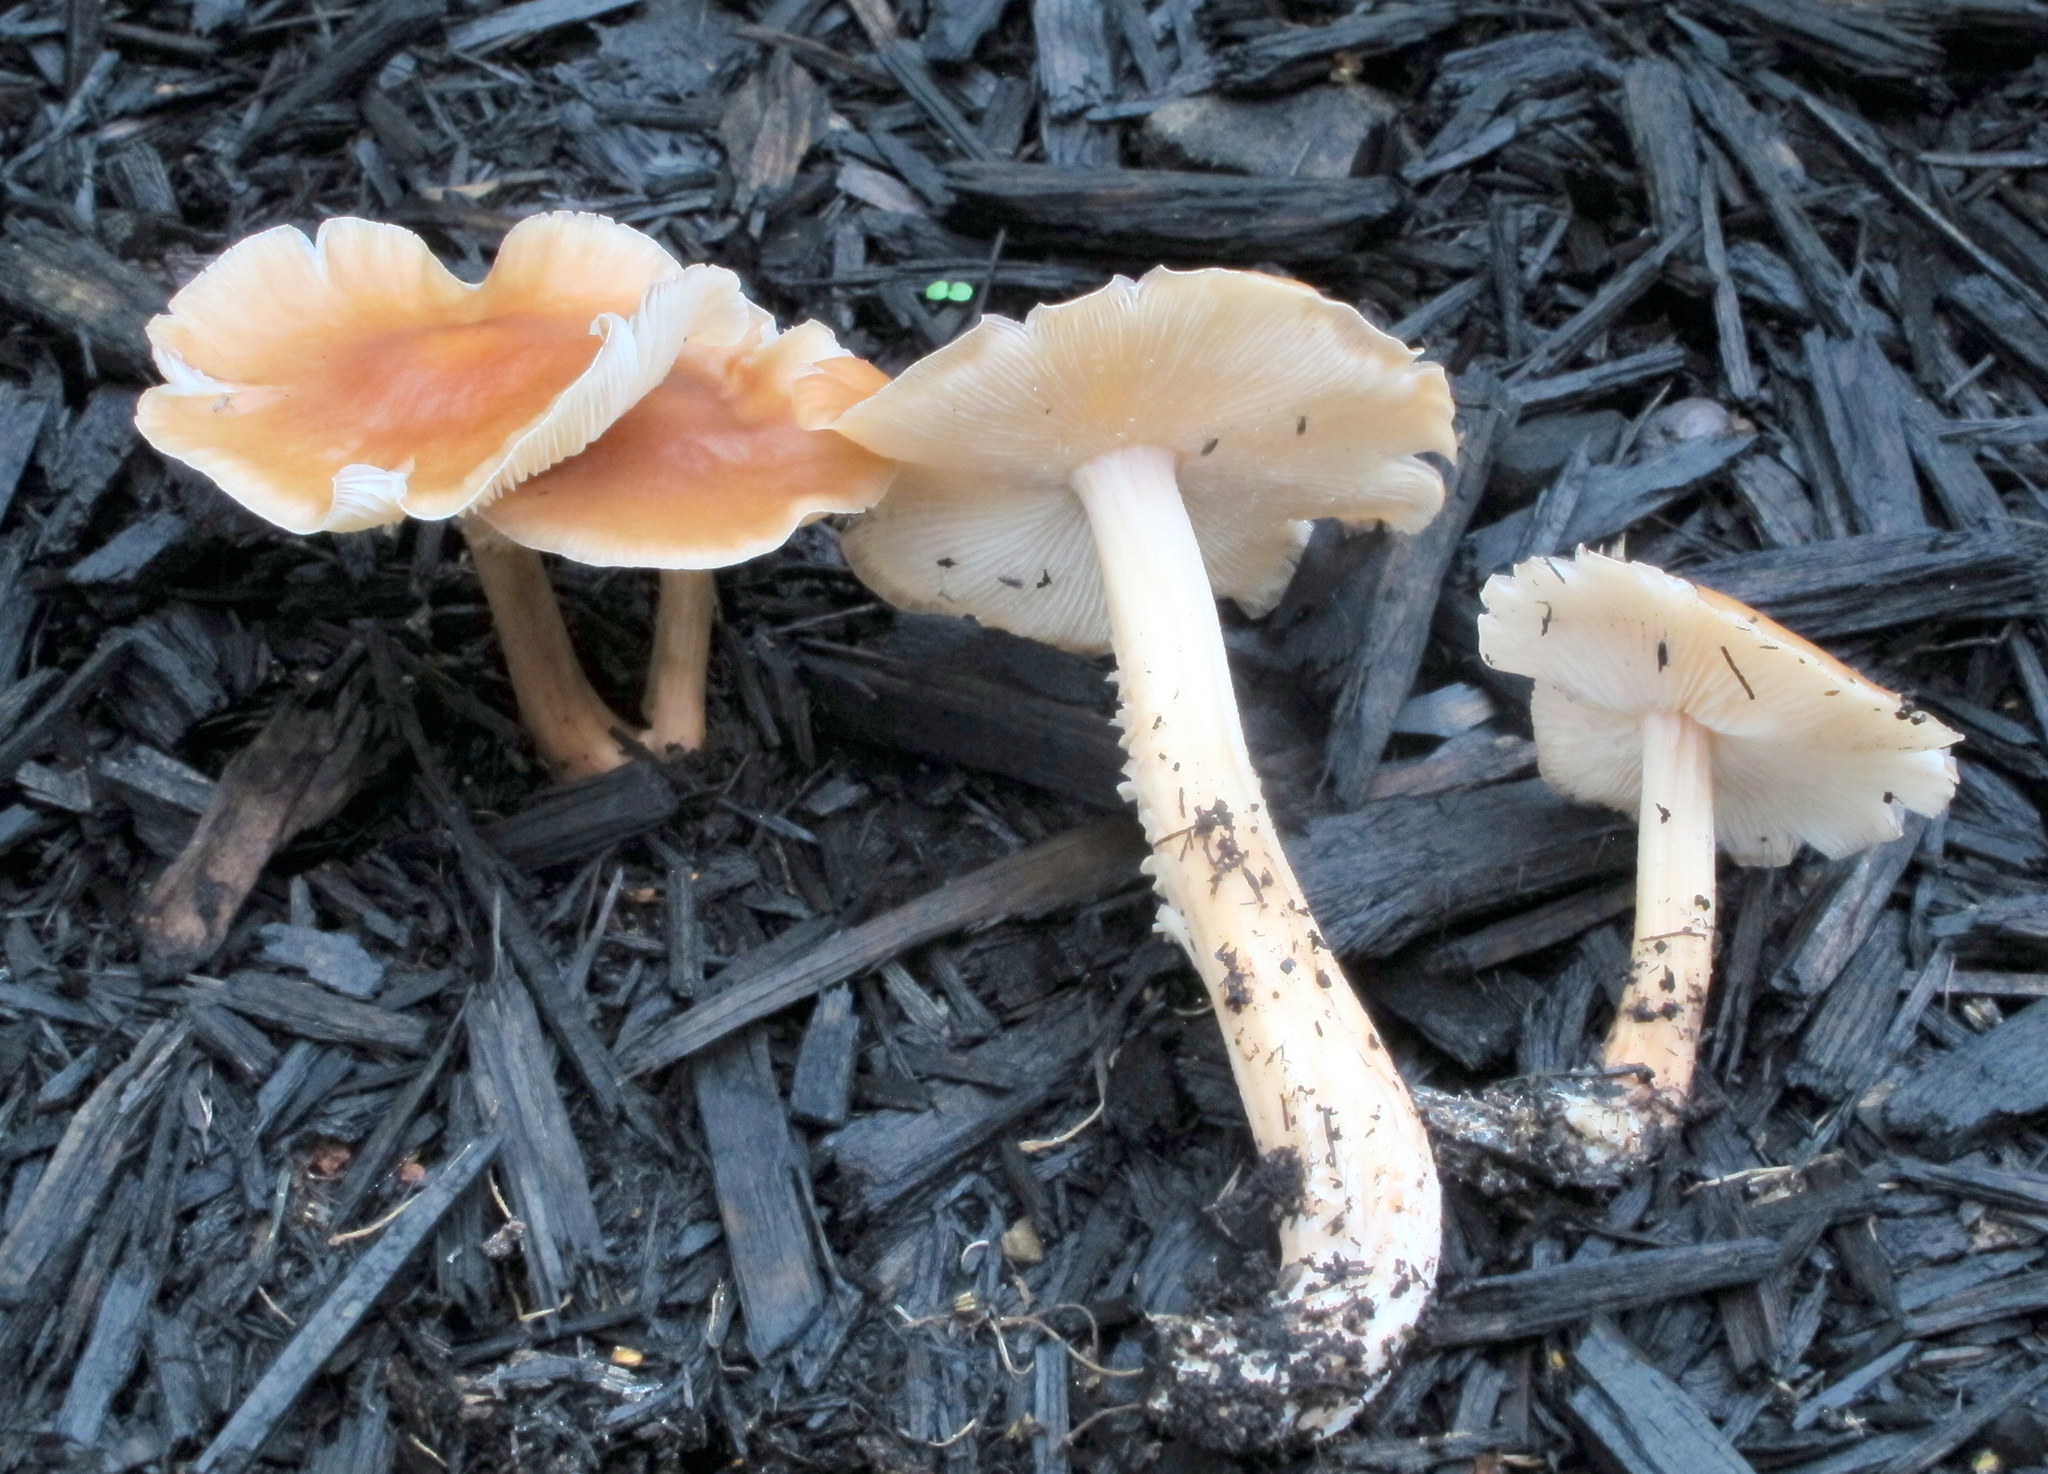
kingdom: Fungi
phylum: Basidiomycota
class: Agaricomycetes
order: Agaricales
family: Omphalotaceae
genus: Collybiopsis
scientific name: Collybiopsis luxurians
